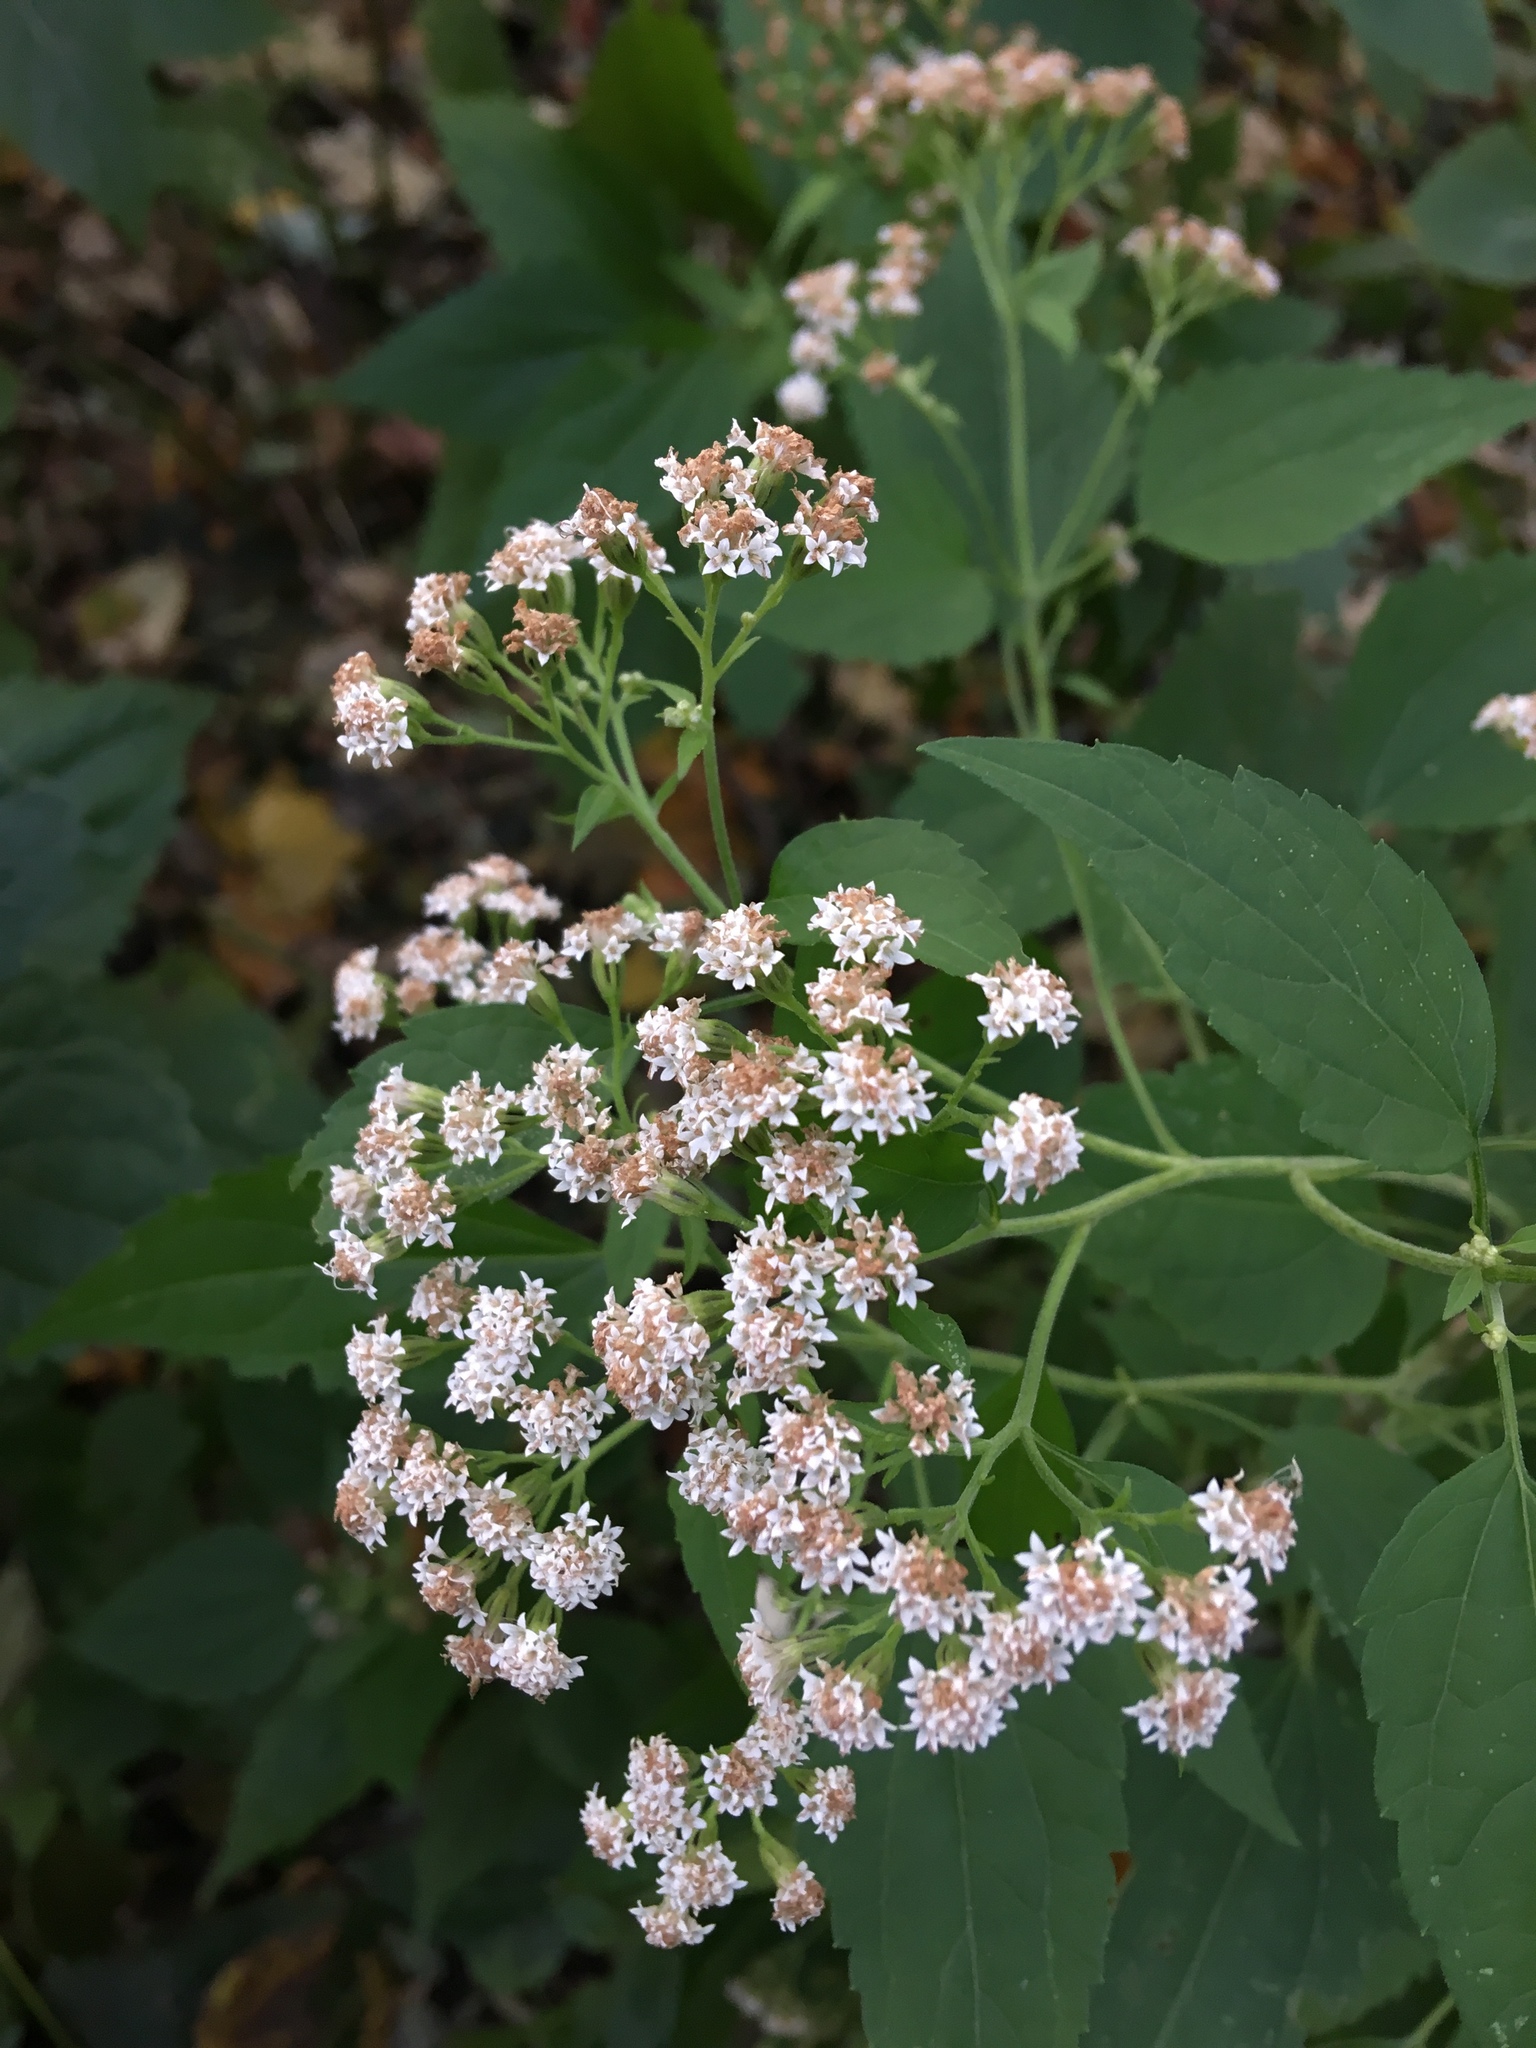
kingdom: Plantae
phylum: Tracheophyta
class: Magnoliopsida
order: Asterales
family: Asteraceae
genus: Ageratina
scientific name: Ageratina altissima
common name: White snakeroot
